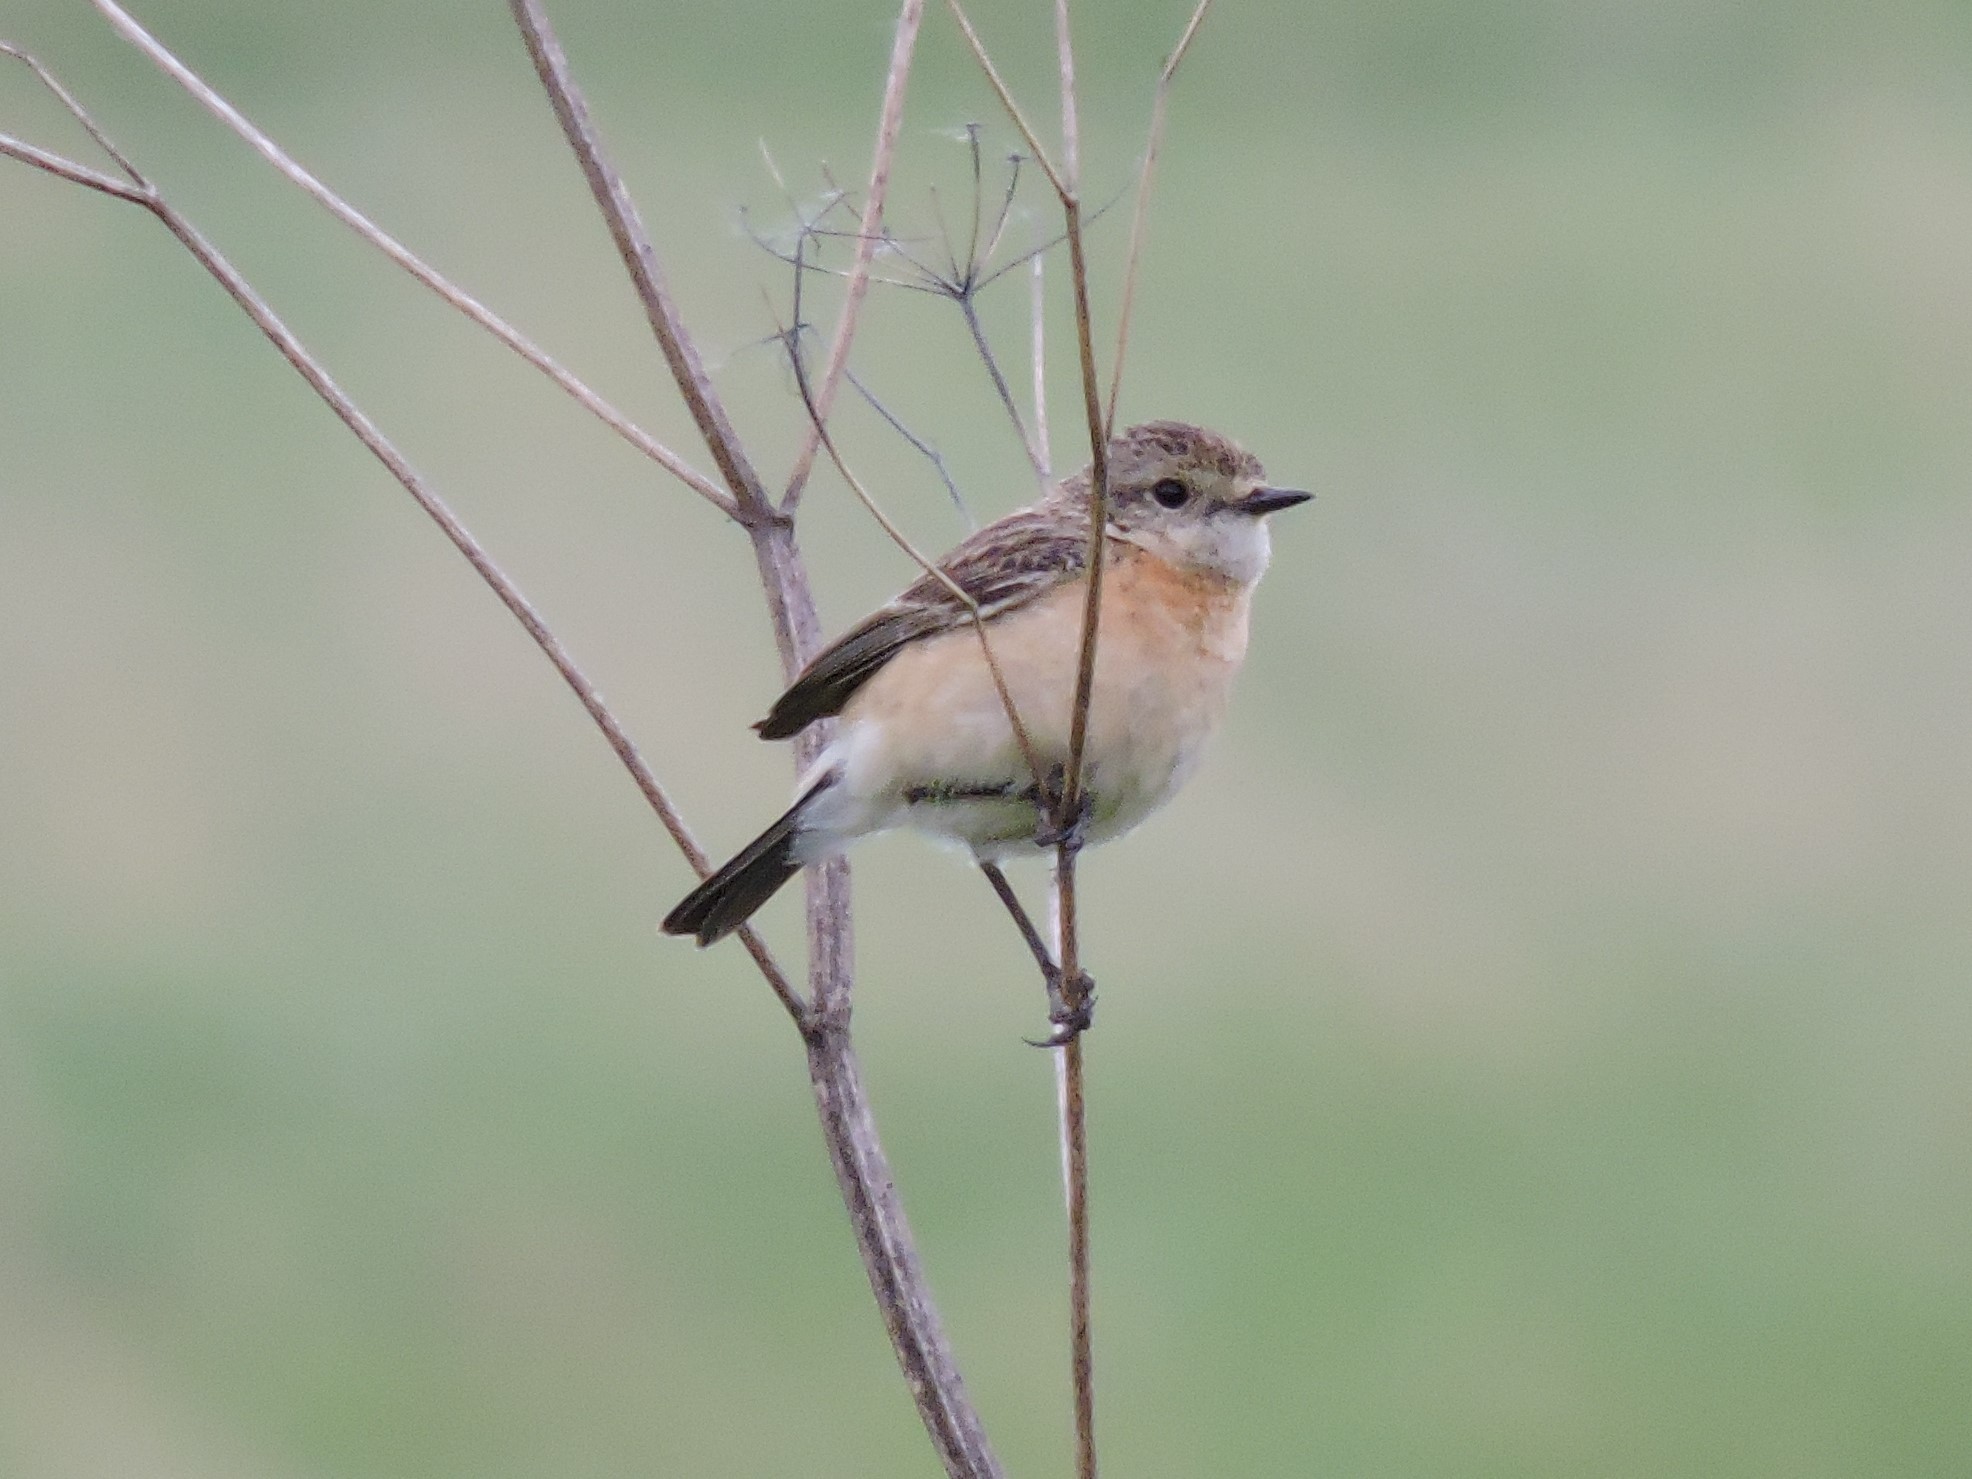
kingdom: Animalia
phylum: Chordata
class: Aves
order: Passeriformes
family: Muscicapidae
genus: Saxicola
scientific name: Saxicola maurus
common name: Siberian stonechat
